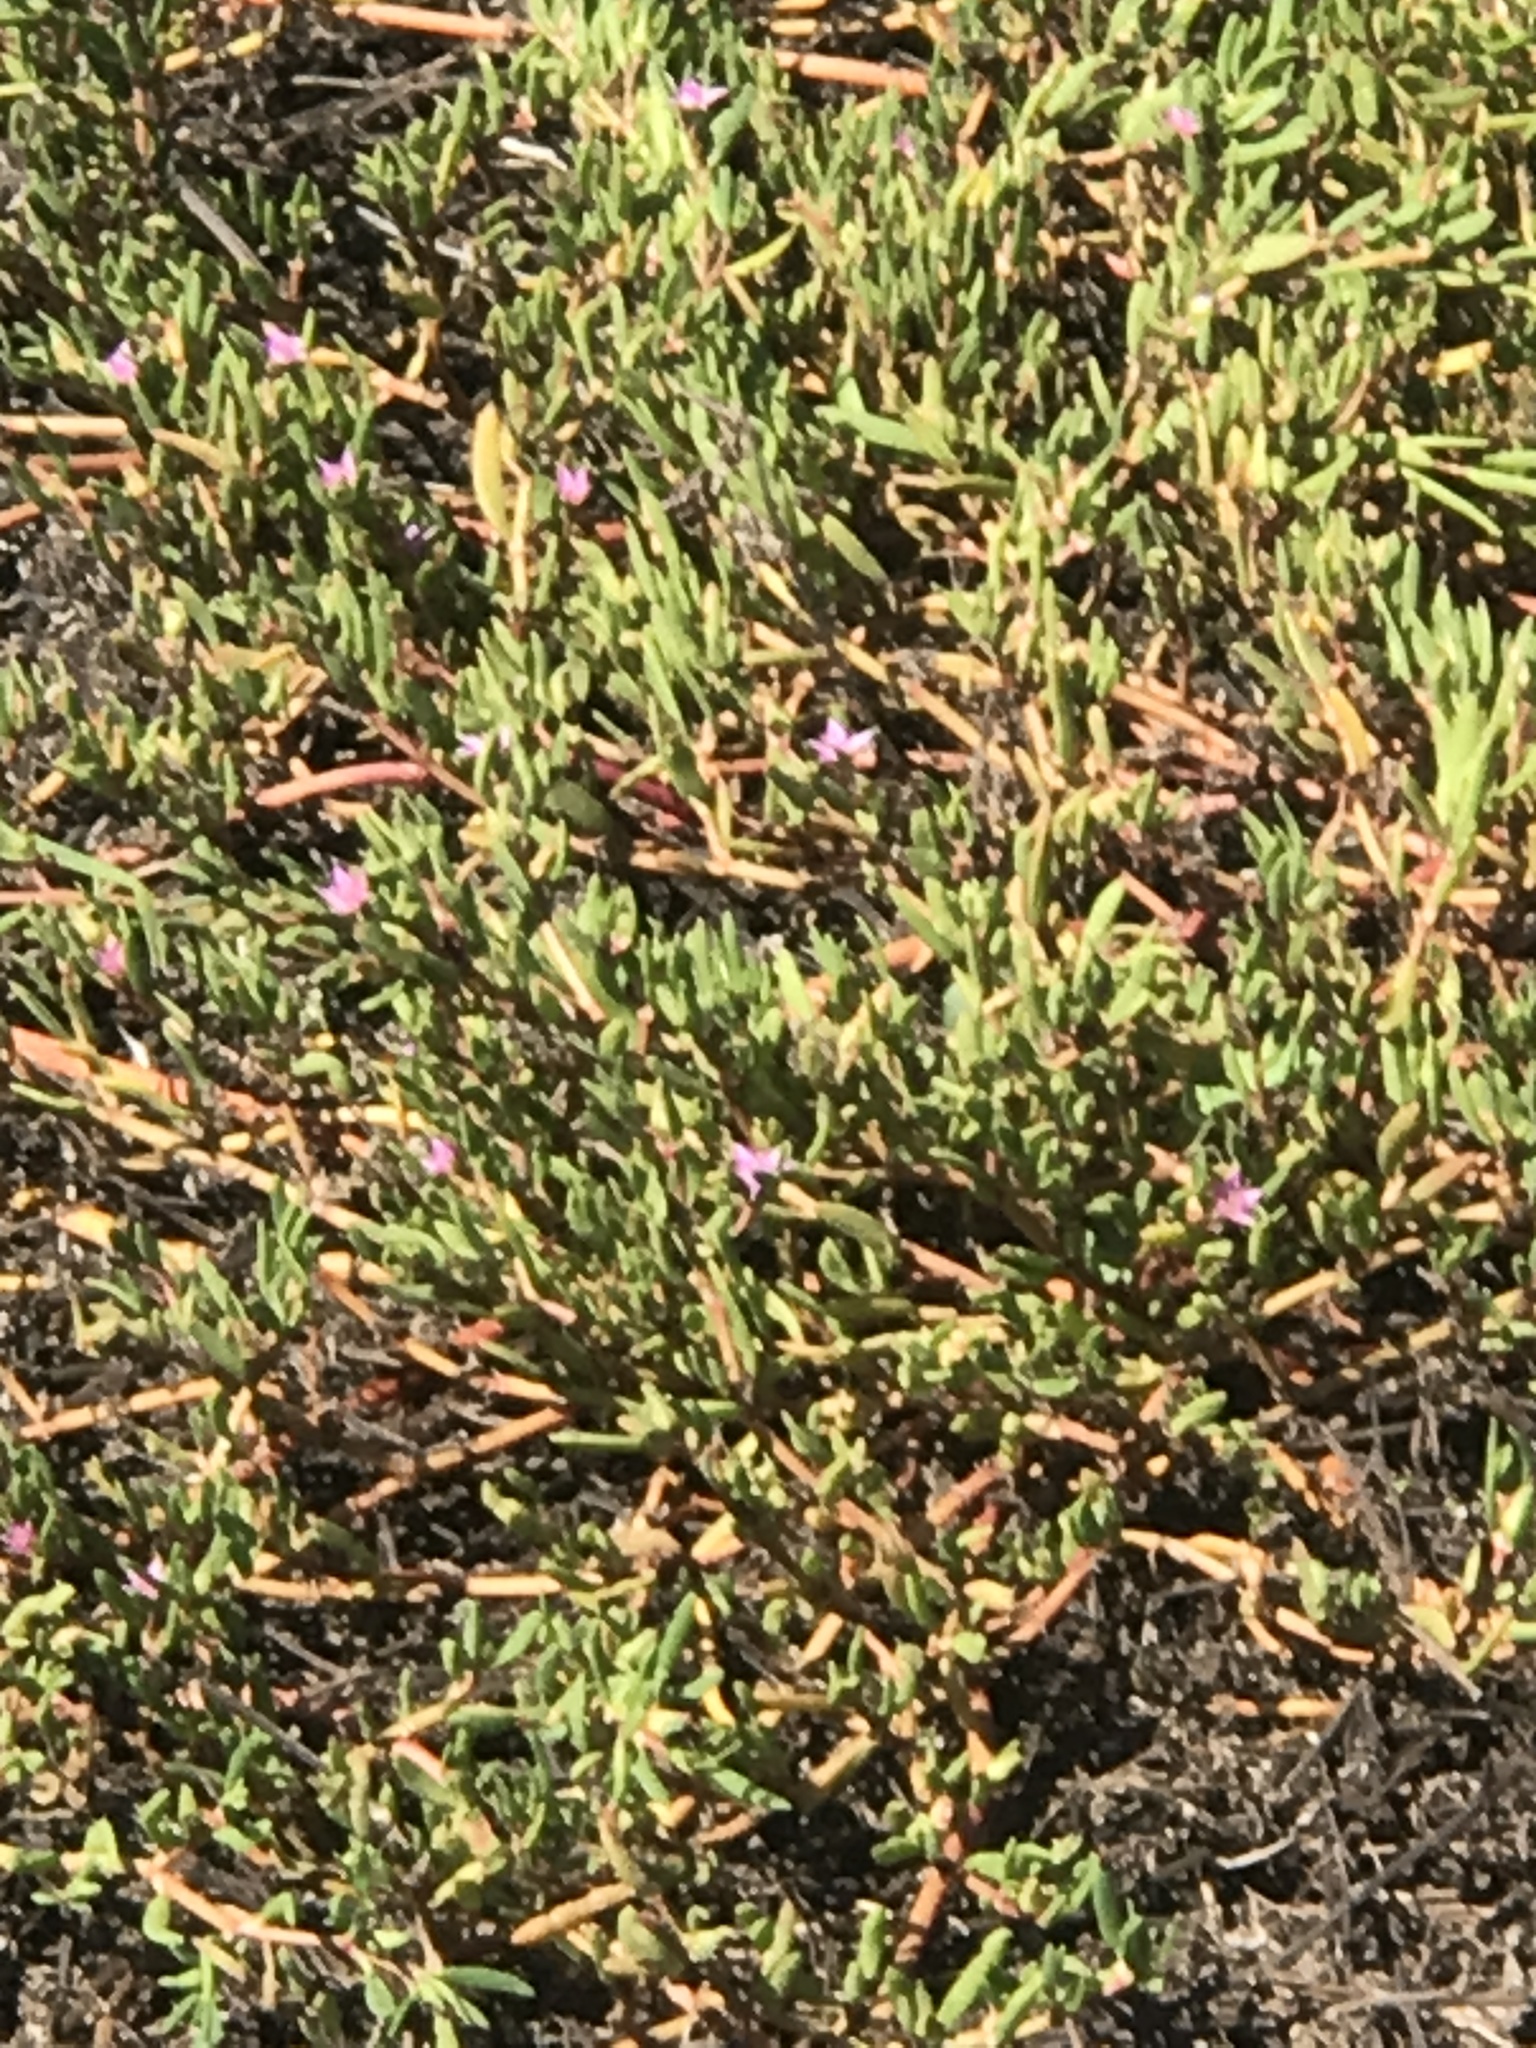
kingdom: Plantae
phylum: Tracheophyta
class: Magnoliopsida
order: Caryophyllales
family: Aizoaceae
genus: Sesuvium
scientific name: Sesuvium portulacastrum
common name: Sea-purslane
